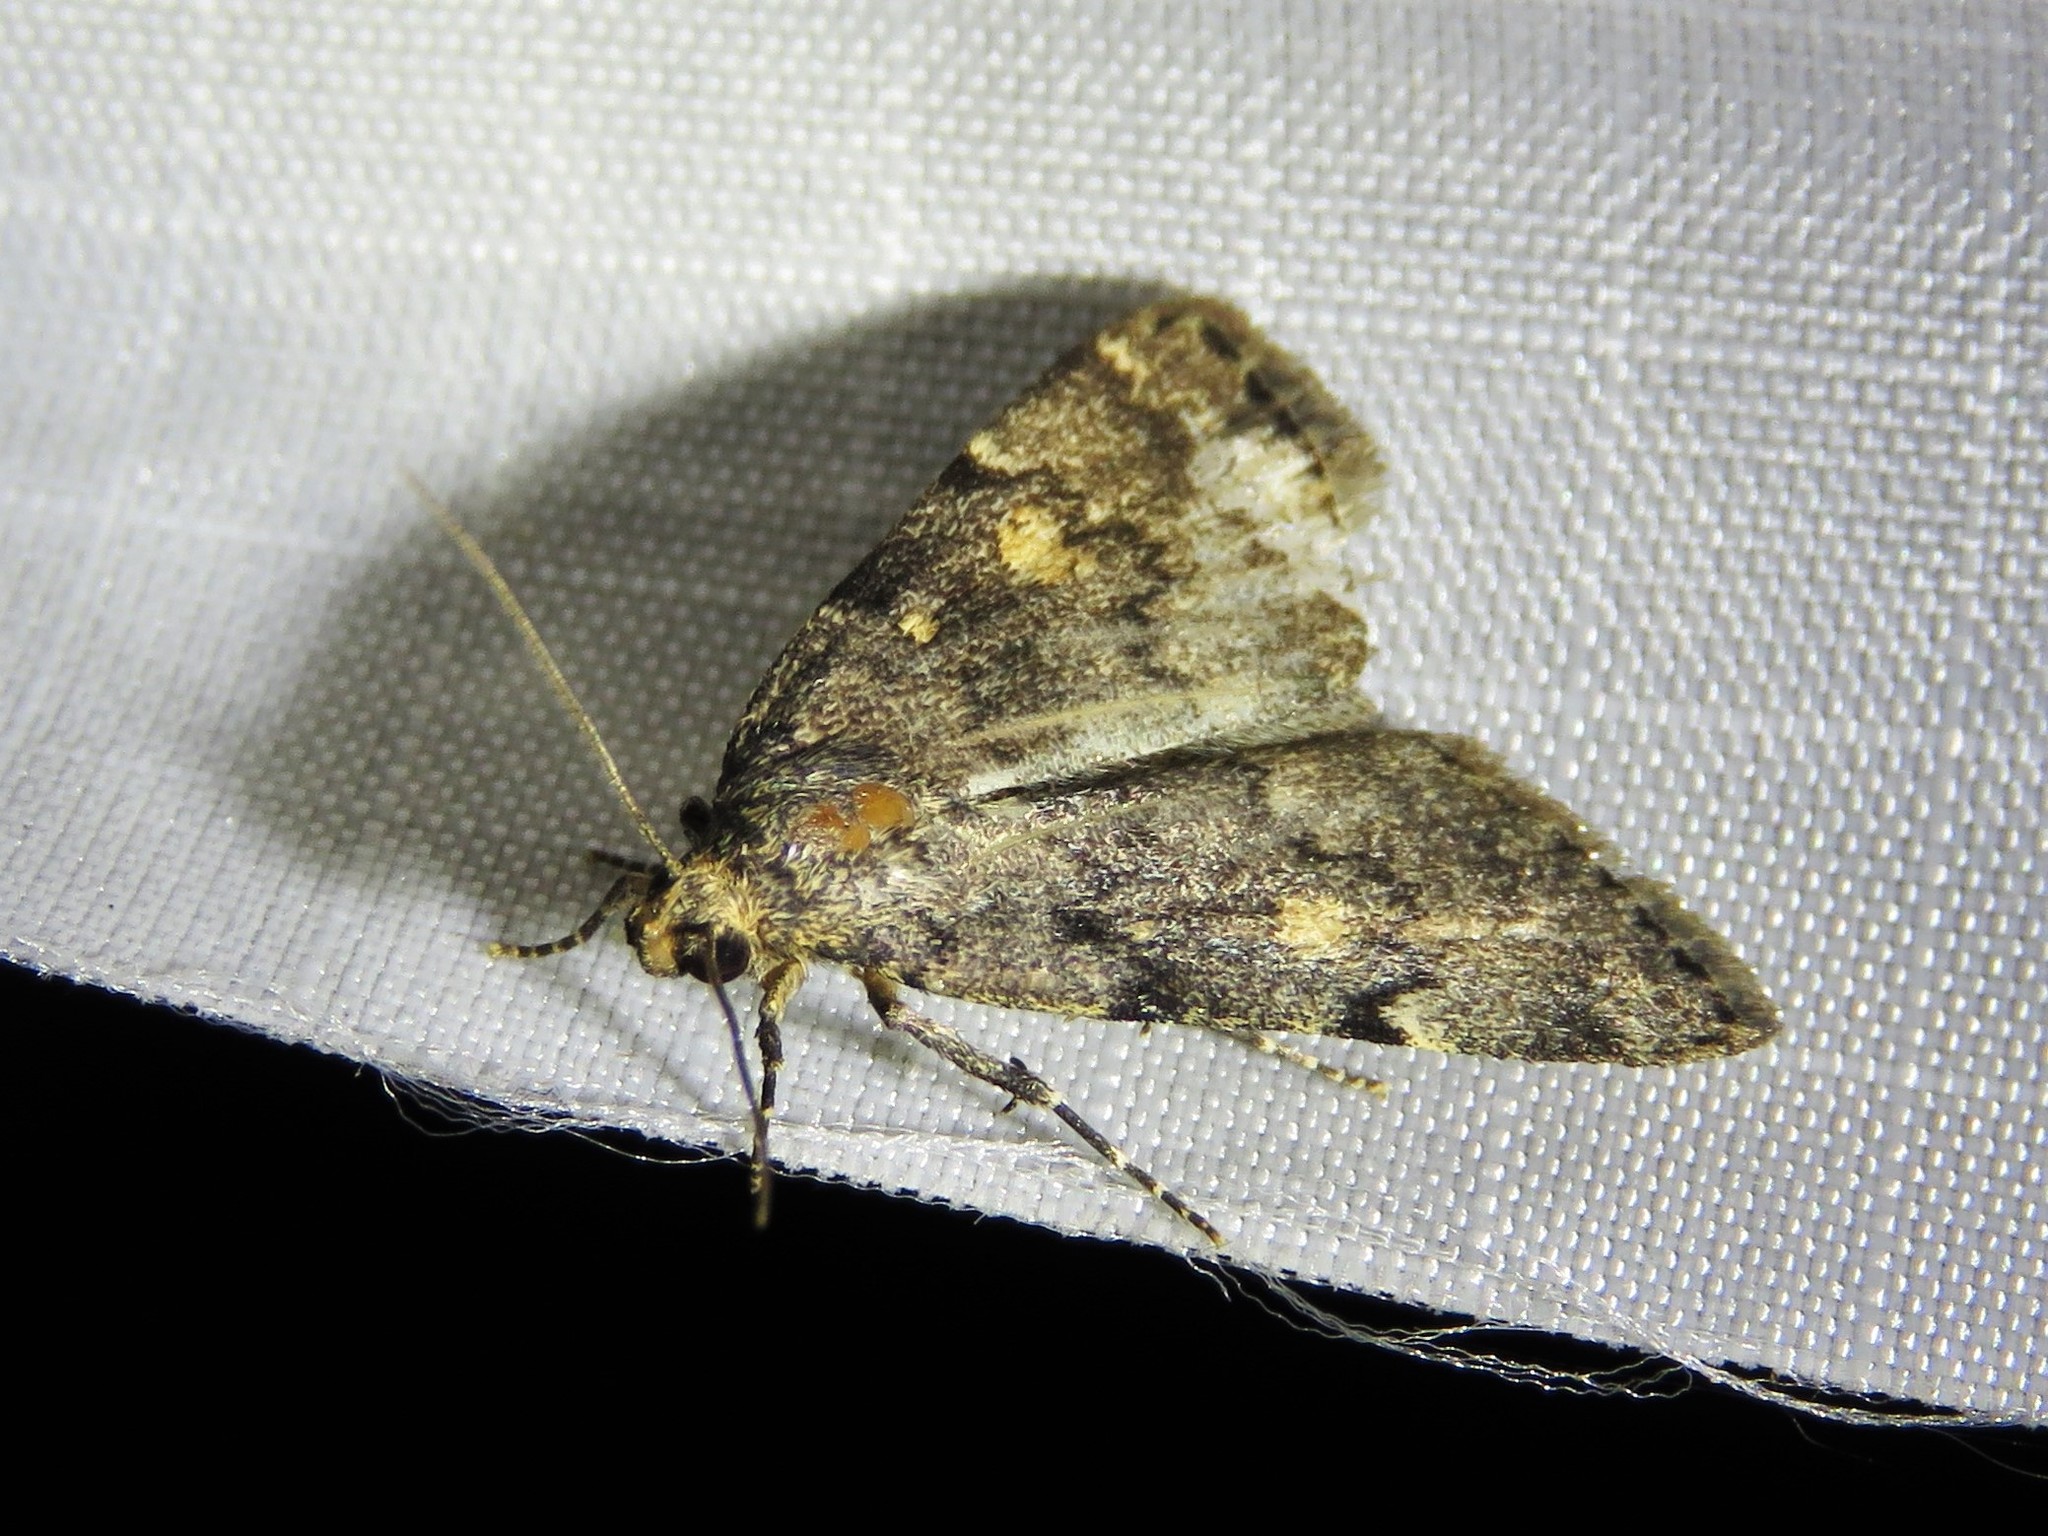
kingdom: Animalia
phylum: Arthropoda
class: Insecta
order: Lepidoptera
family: Erebidae
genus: Idia
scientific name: Idia aemula
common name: Common idia moth
